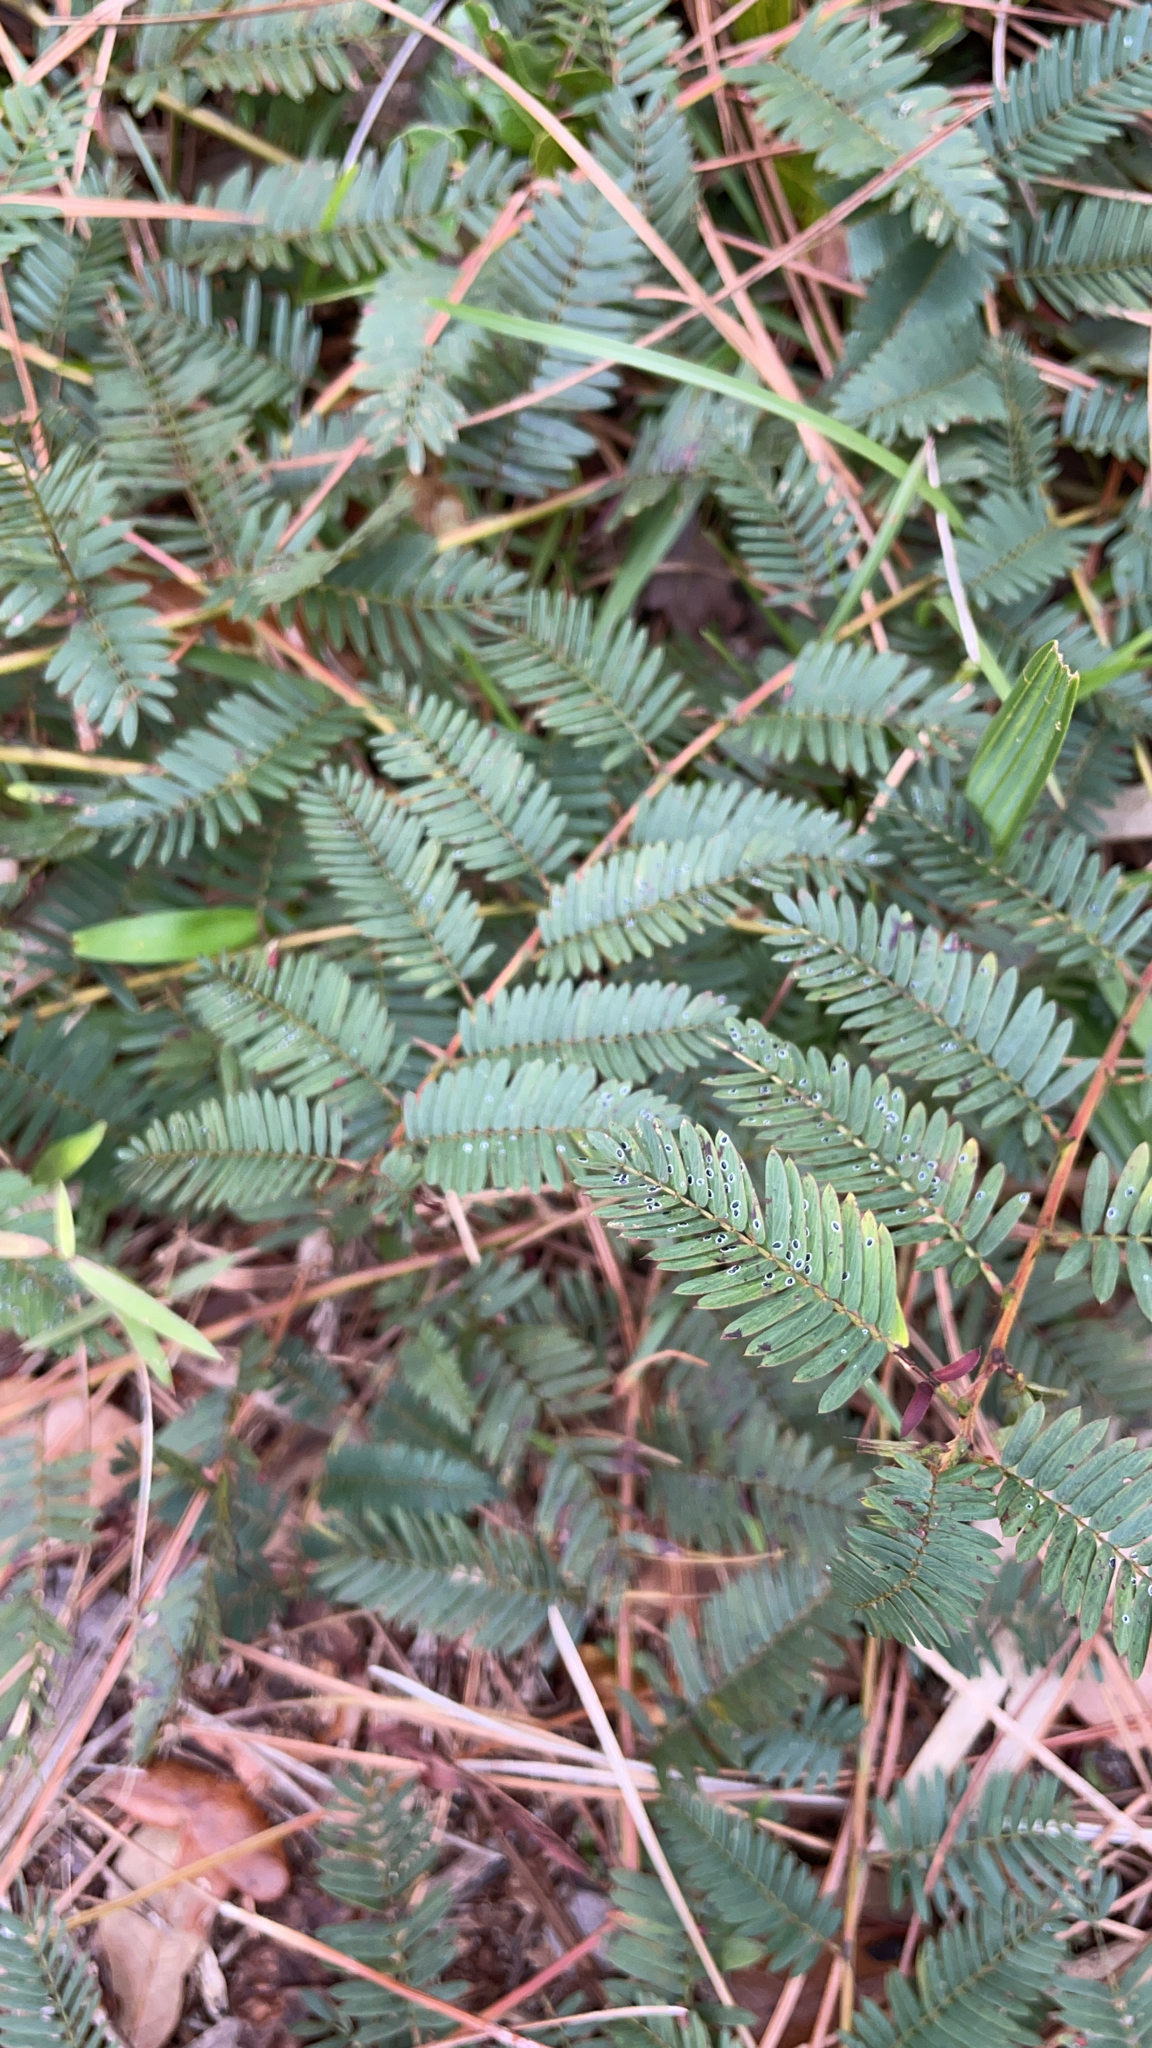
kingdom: Plantae
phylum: Tracheophyta
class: Magnoliopsida
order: Fabales
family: Fabaceae
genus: Chamaecrista
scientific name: Chamaecrista fasciculata
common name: Golden cassia
